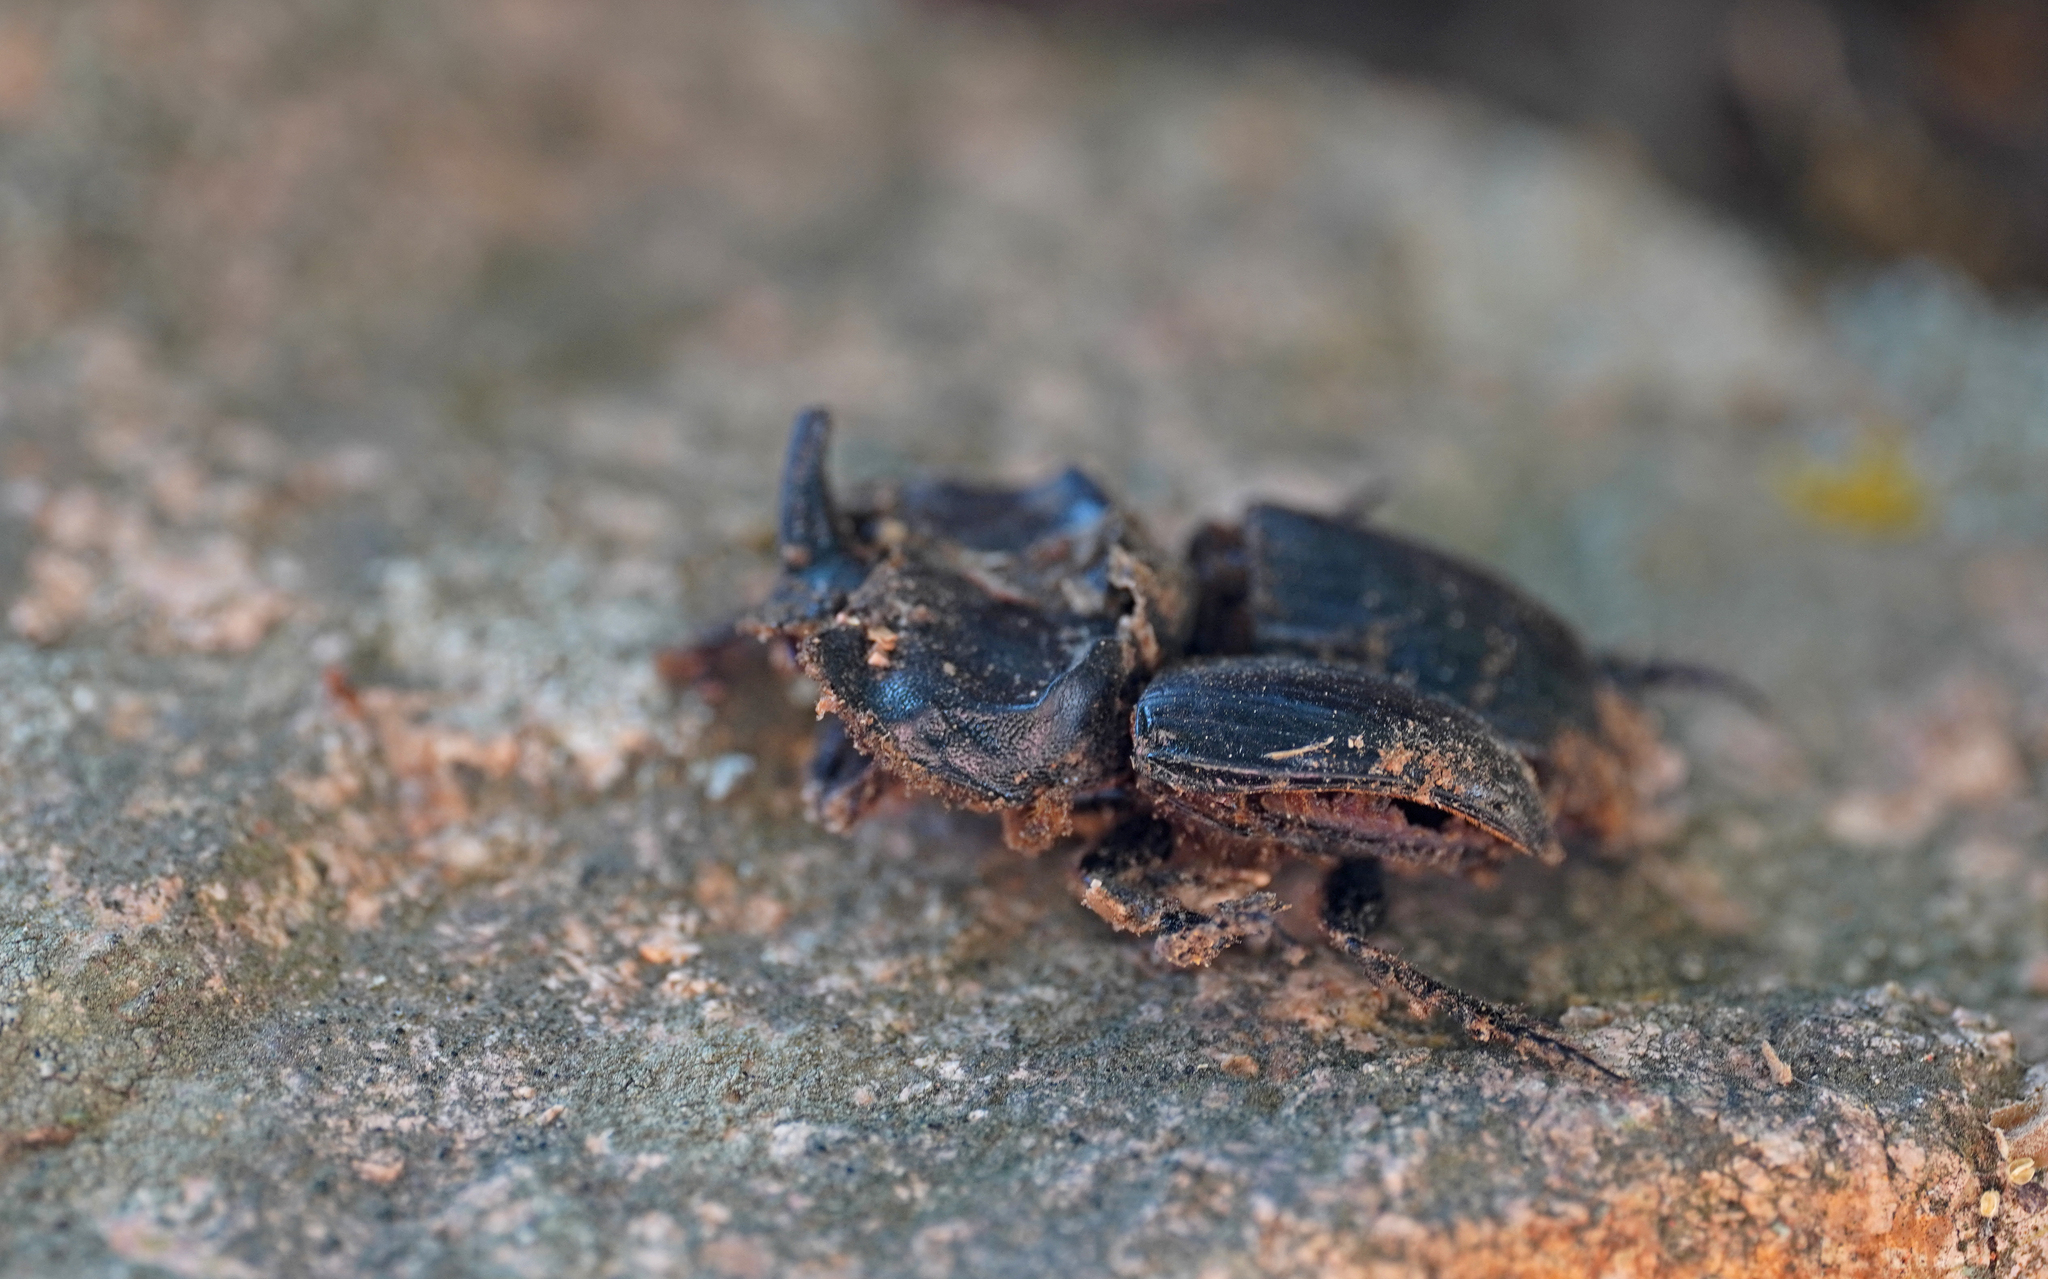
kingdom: Animalia
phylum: Arthropoda
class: Insecta
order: Coleoptera
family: Scarabaeidae
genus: Copris
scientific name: Copris hispanus
